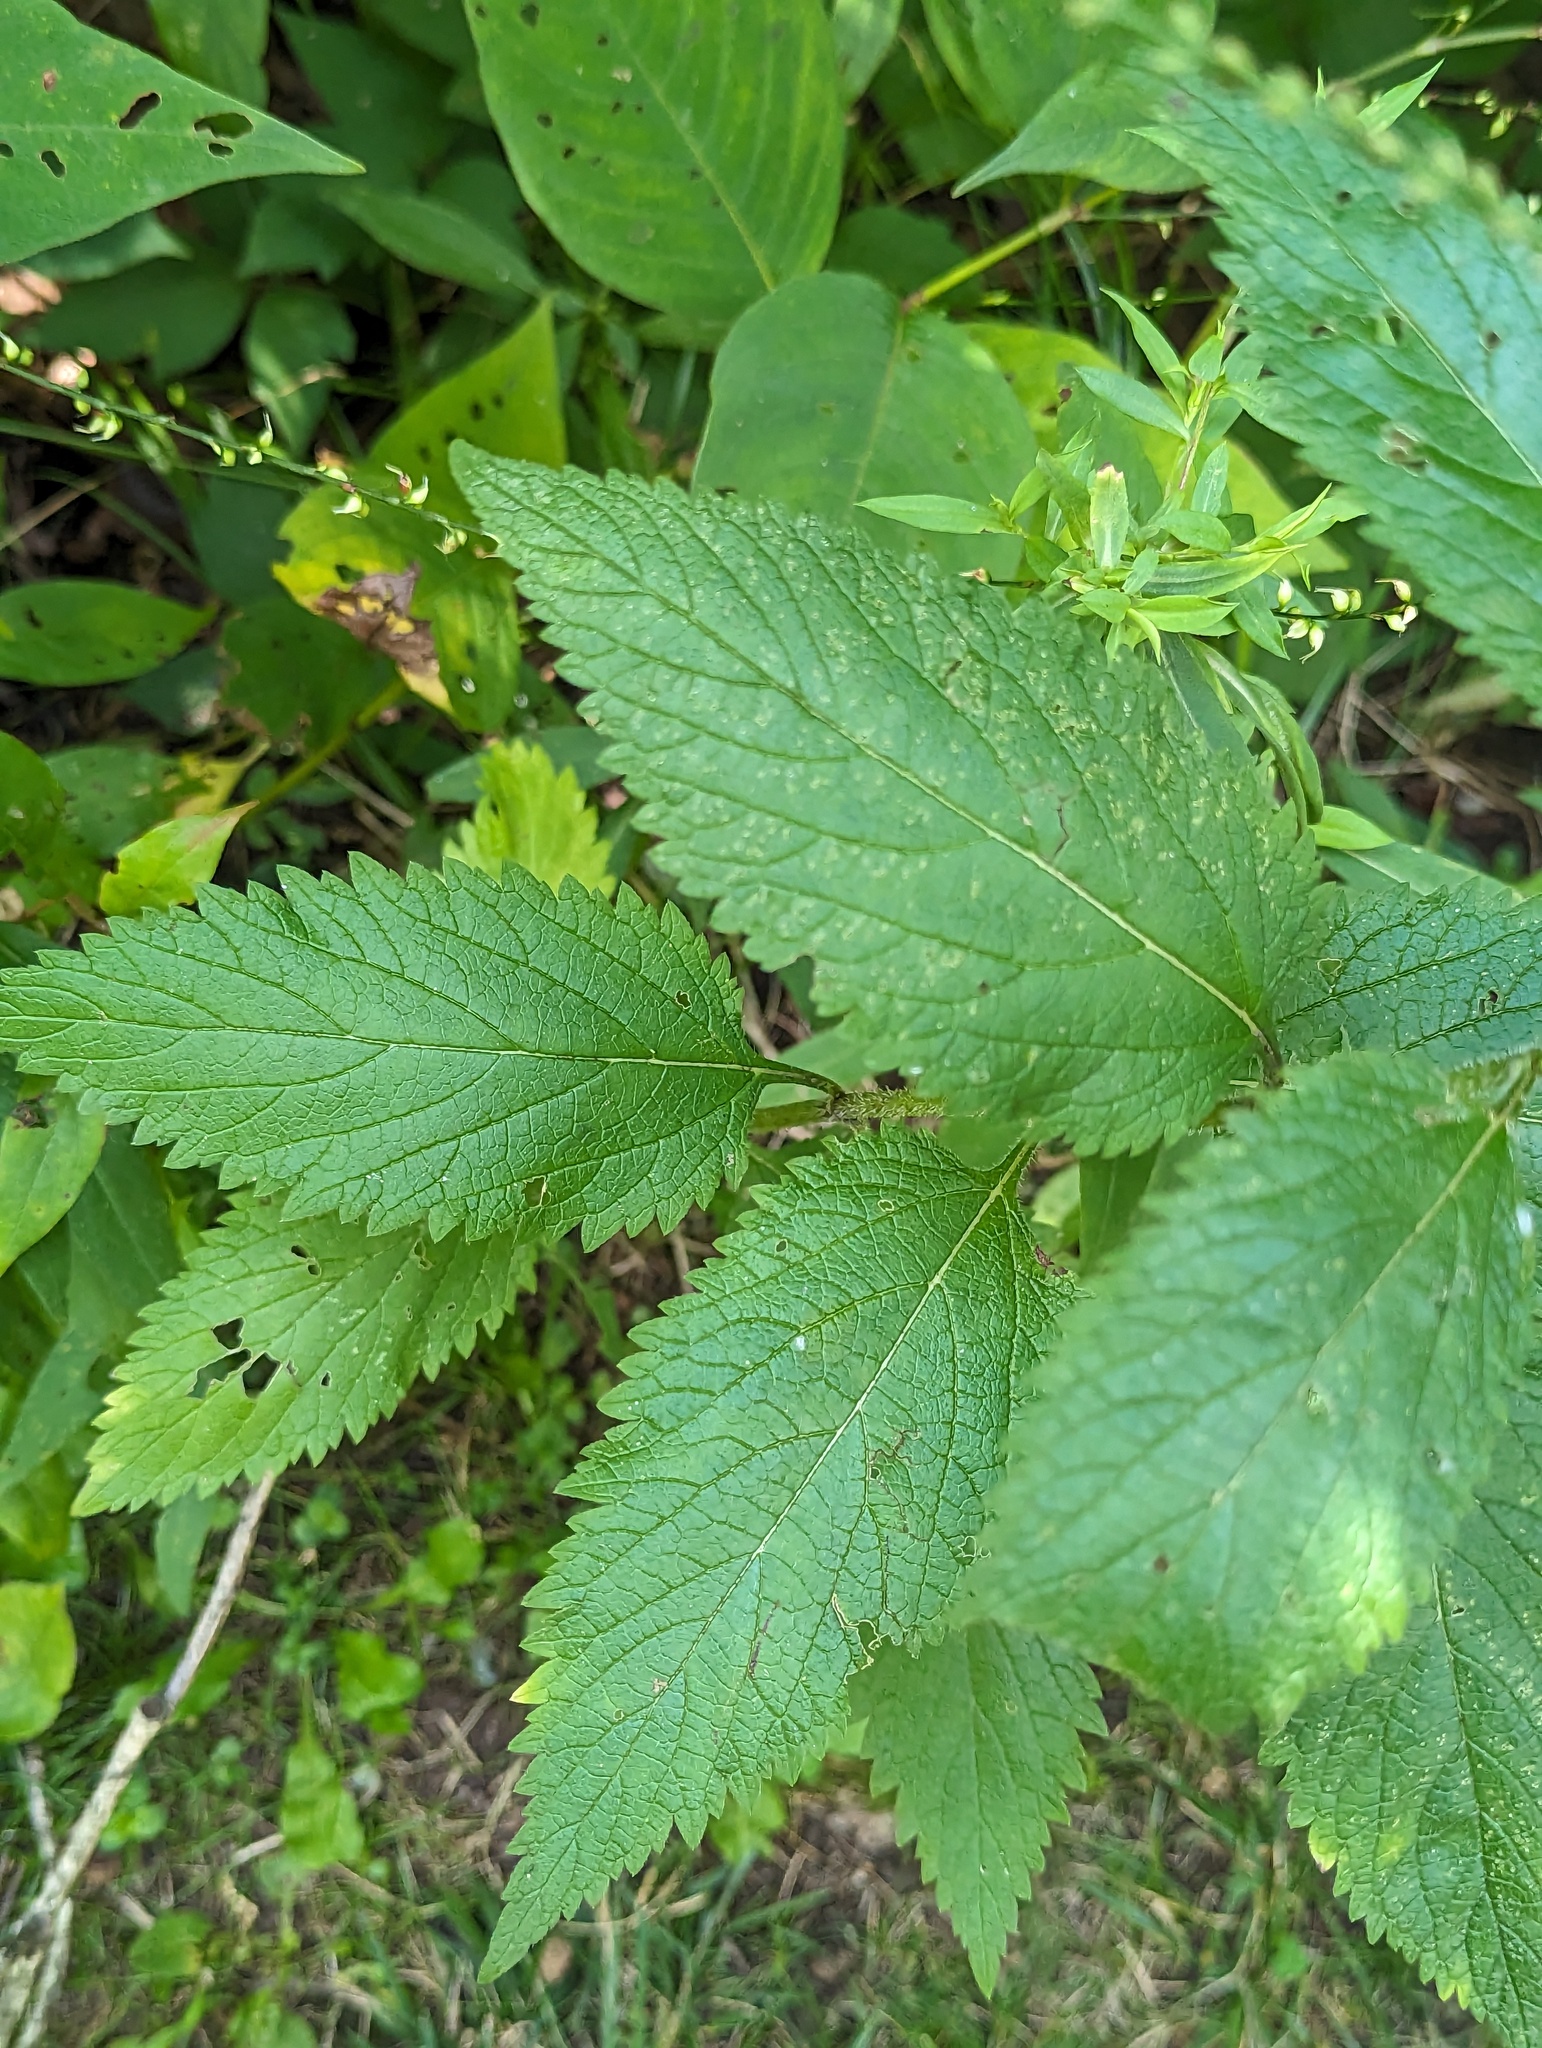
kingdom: Plantae
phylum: Tracheophyta
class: Magnoliopsida
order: Lamiales
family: Verbenaceae
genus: Verbena
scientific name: Verbena urticifolia
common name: Nettle-leaved vervain
